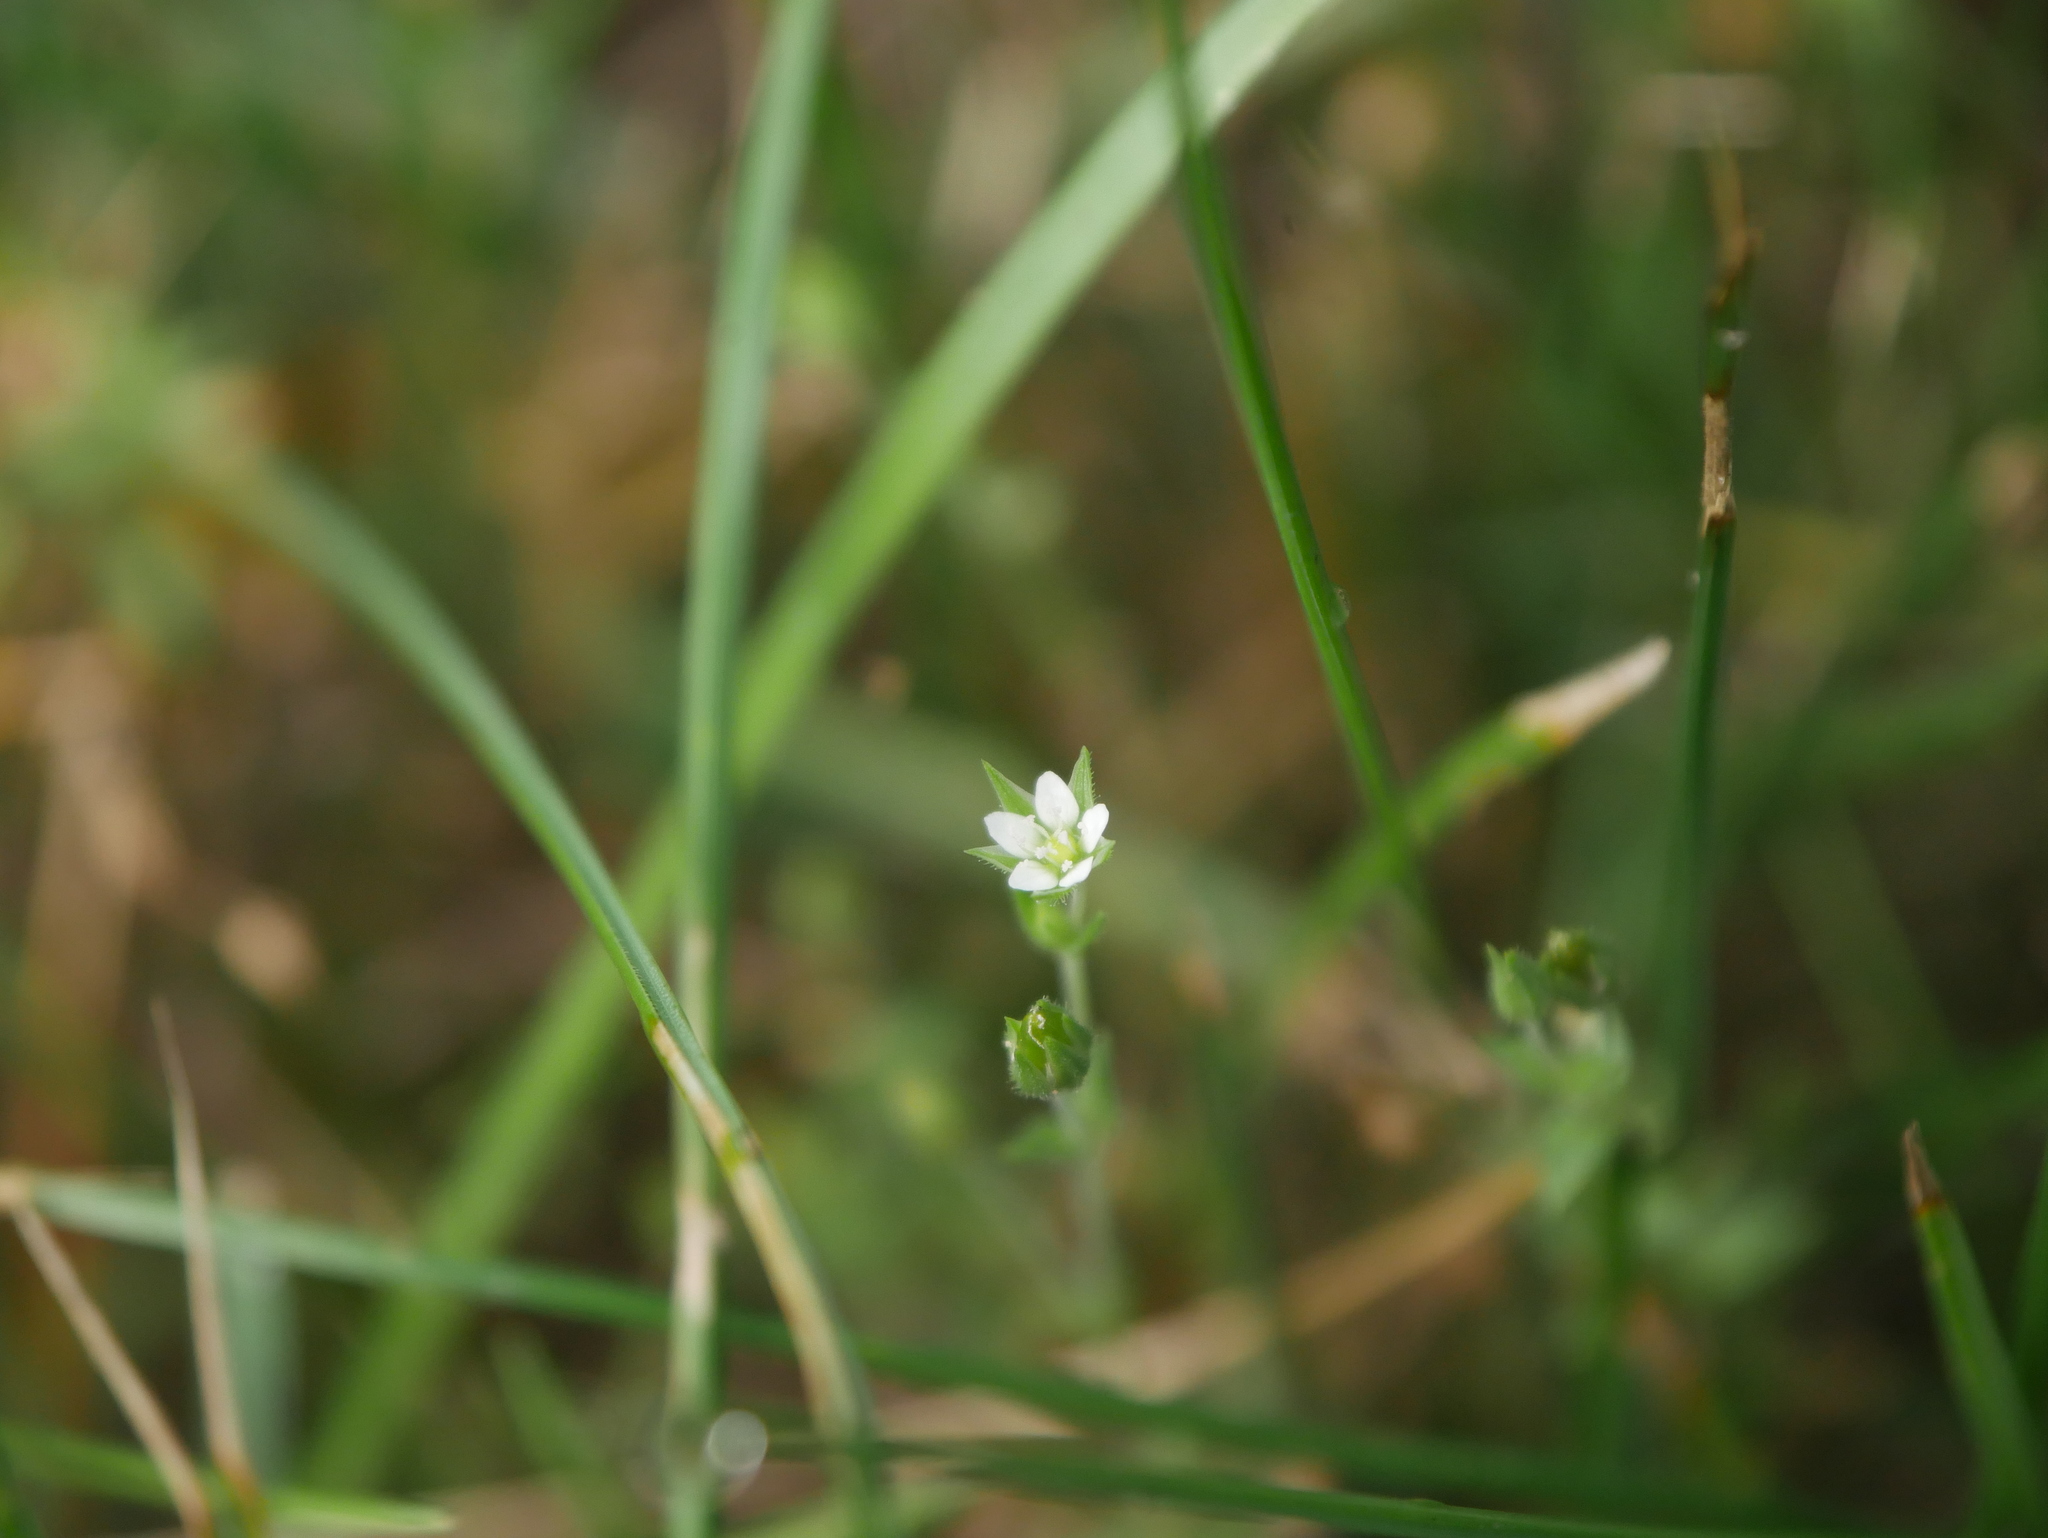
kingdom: Plantae
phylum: Tracheophyta
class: Magnoliopsida
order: Caryophyllales
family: Caryophyllaceae
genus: Arenaria
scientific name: Arenaria serpyllifolia
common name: Thyme-leaved sandwort
